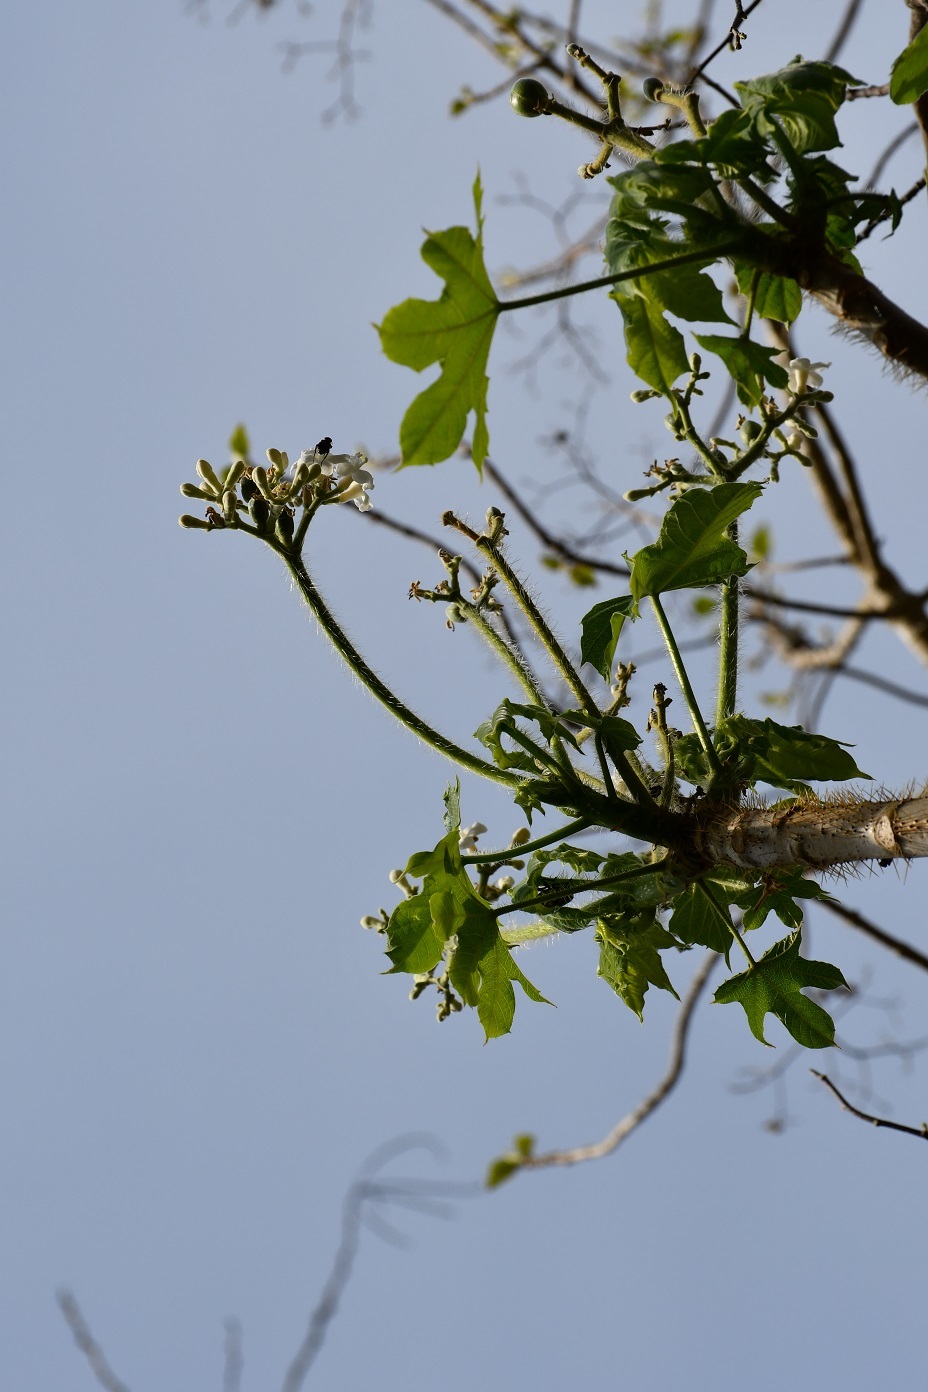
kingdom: Plantae
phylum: Tracheophyta
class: Magnoliopsida
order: Malpighiales
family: Euphorbiaceae
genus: Cnidoscolus
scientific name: Cnidoscolus aconitifolius
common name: Cabbage-star
